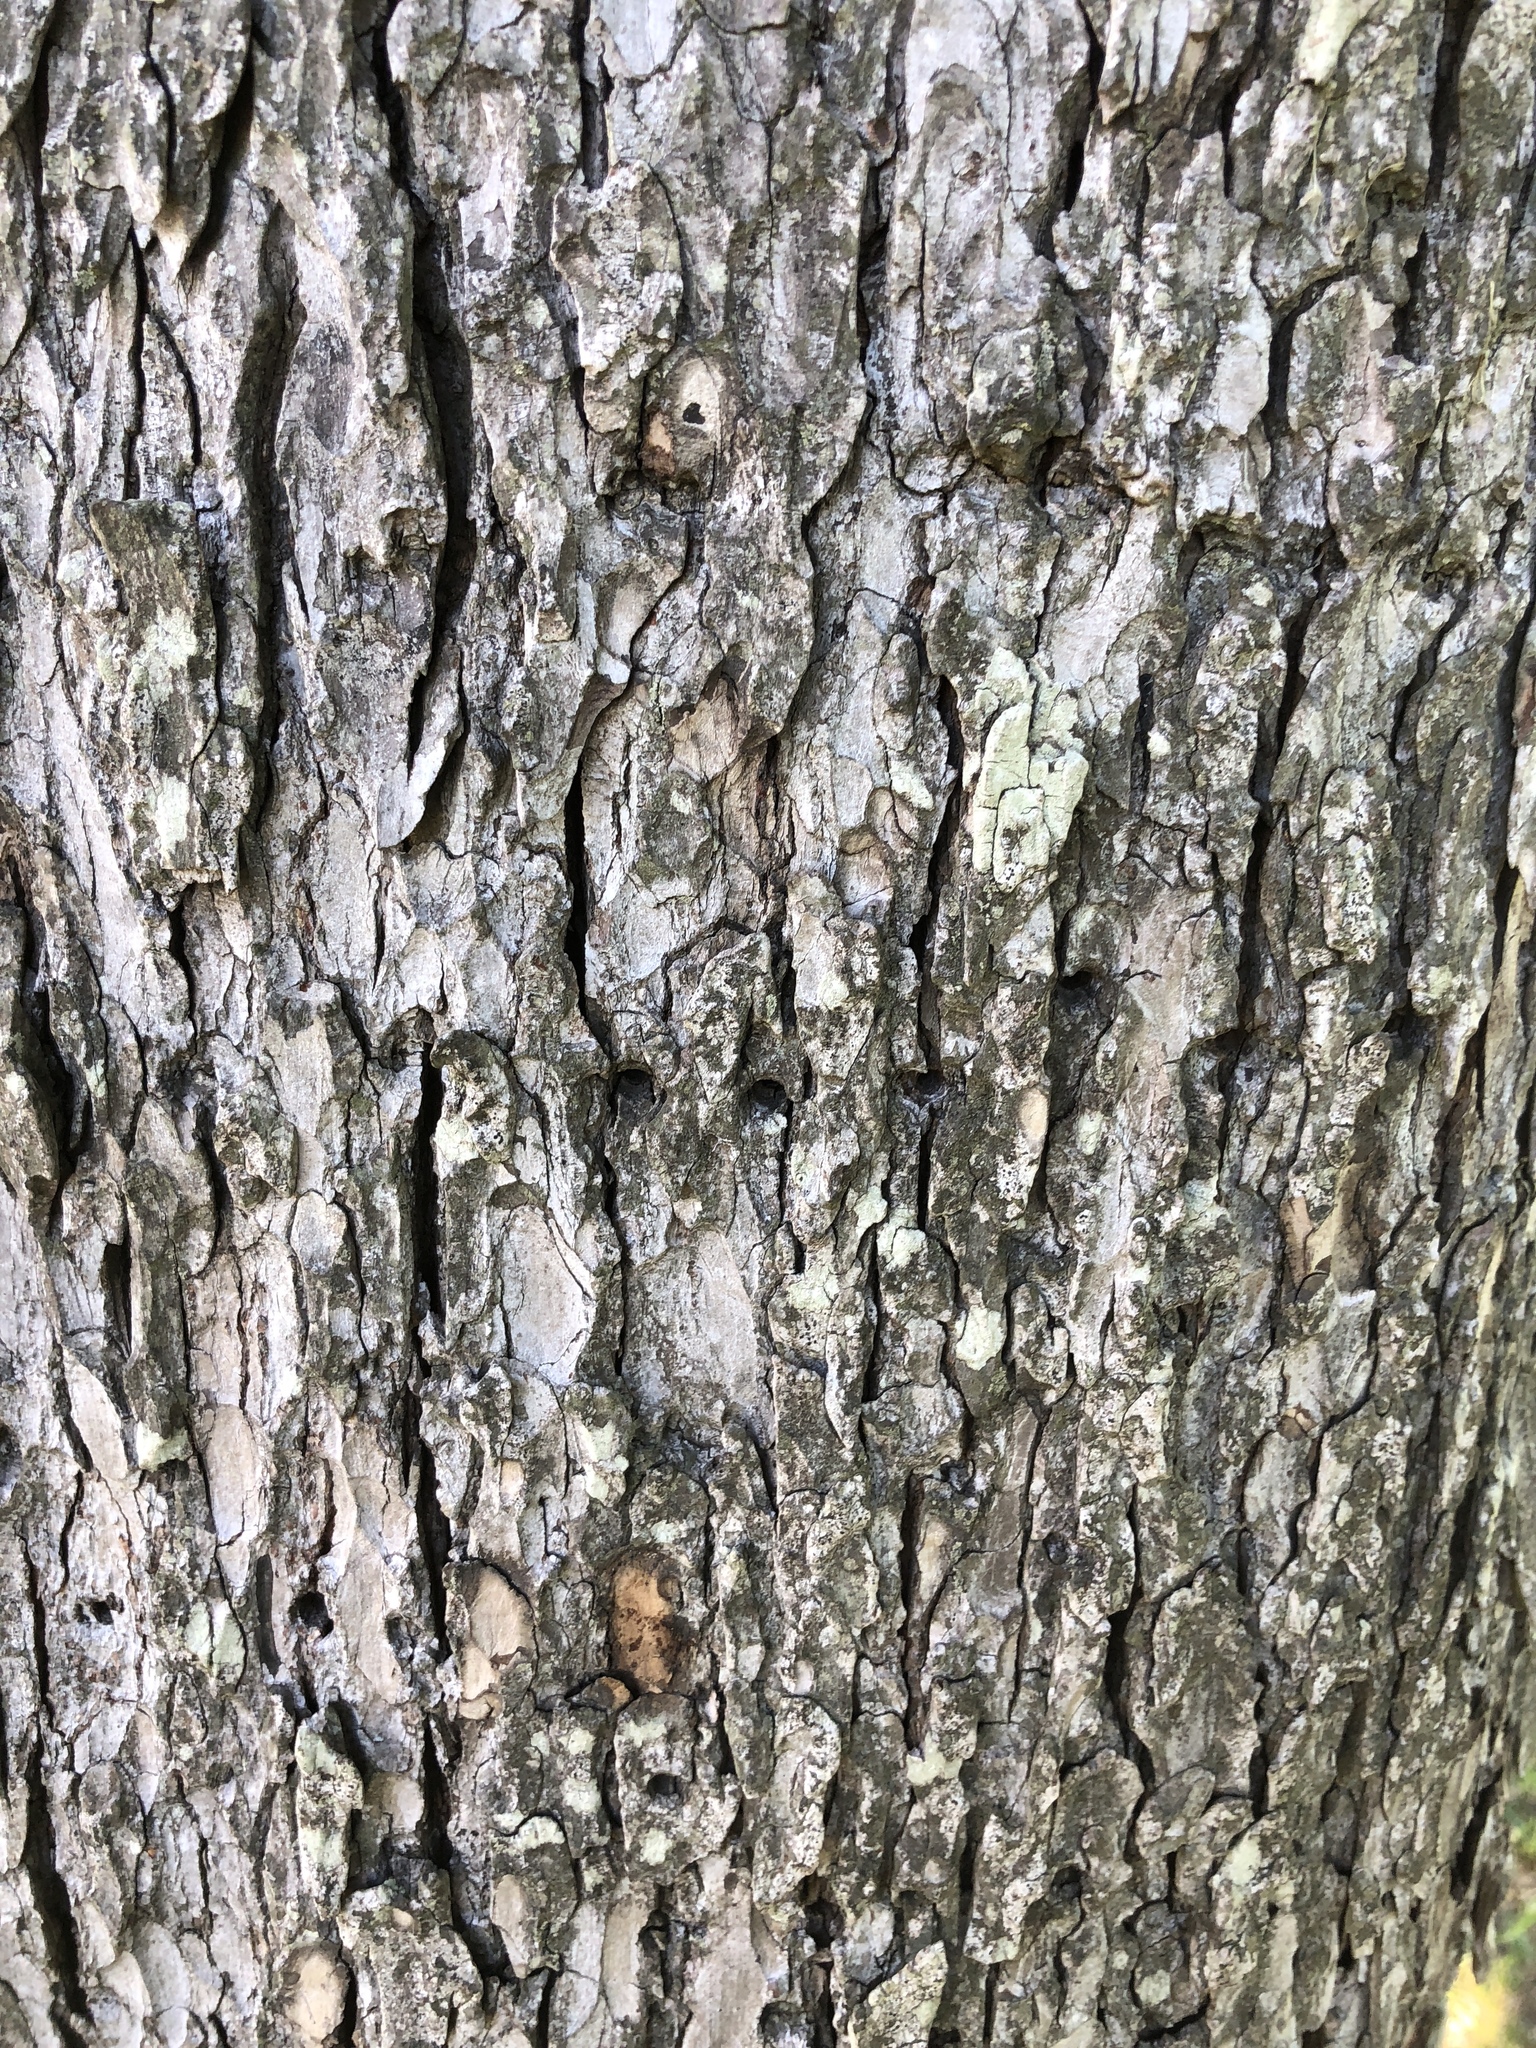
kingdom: Animalia
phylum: Chordata
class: Aves
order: Piciformes
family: Picidae
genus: Sphyrapicus
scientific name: Sphyrapicus varius
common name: Yellow-bellied sapsucker
